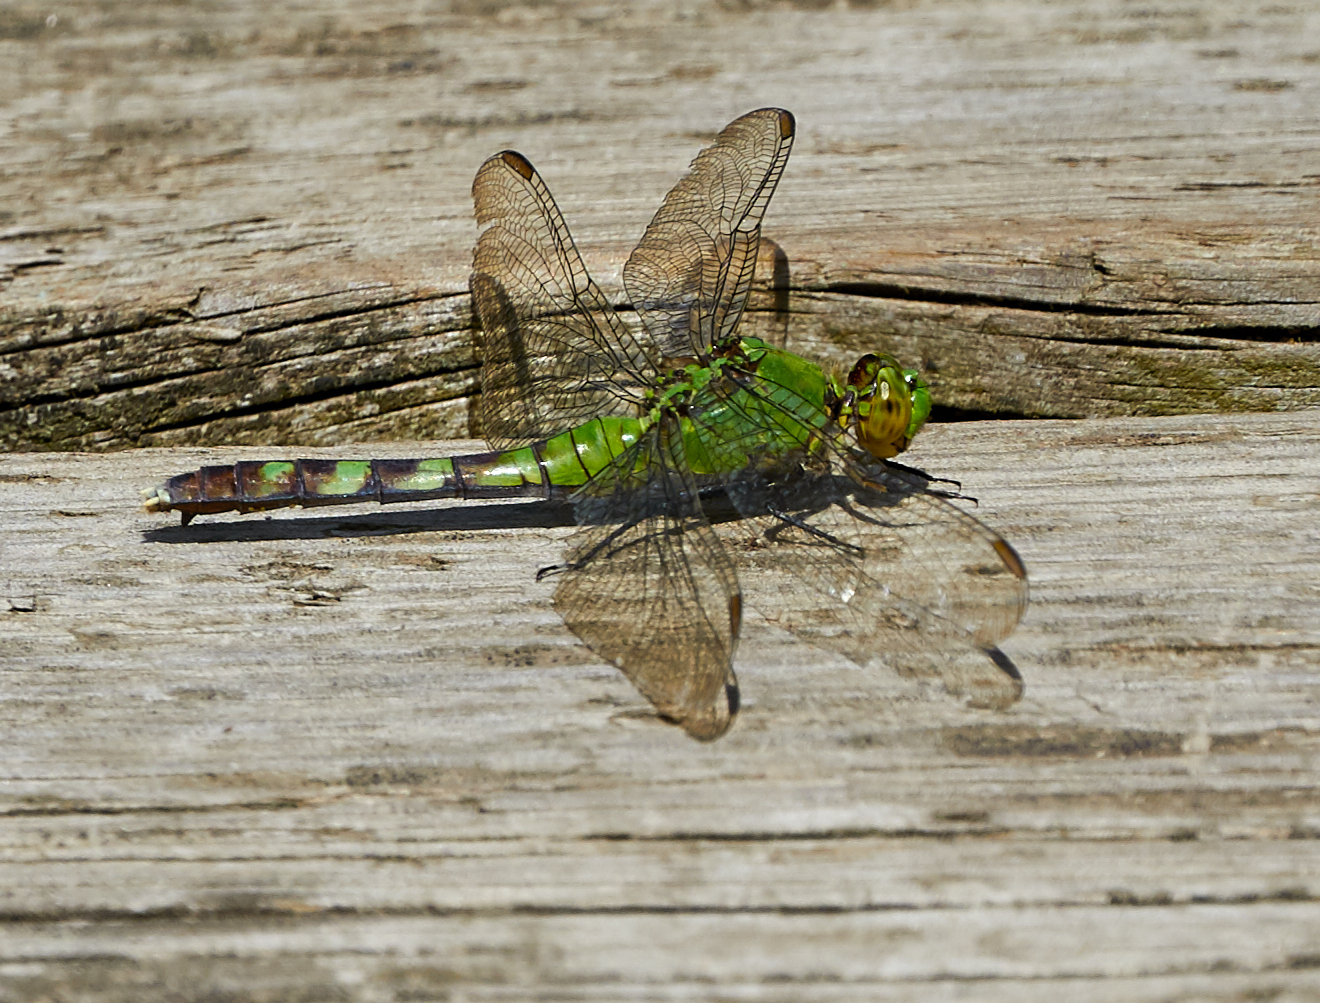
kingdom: Animalia
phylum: Arthropoda
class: Insecta
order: Odonata
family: Libellulidae
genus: Erythemis
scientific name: Erythemis simplicicollis
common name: Eastern pondhawk
